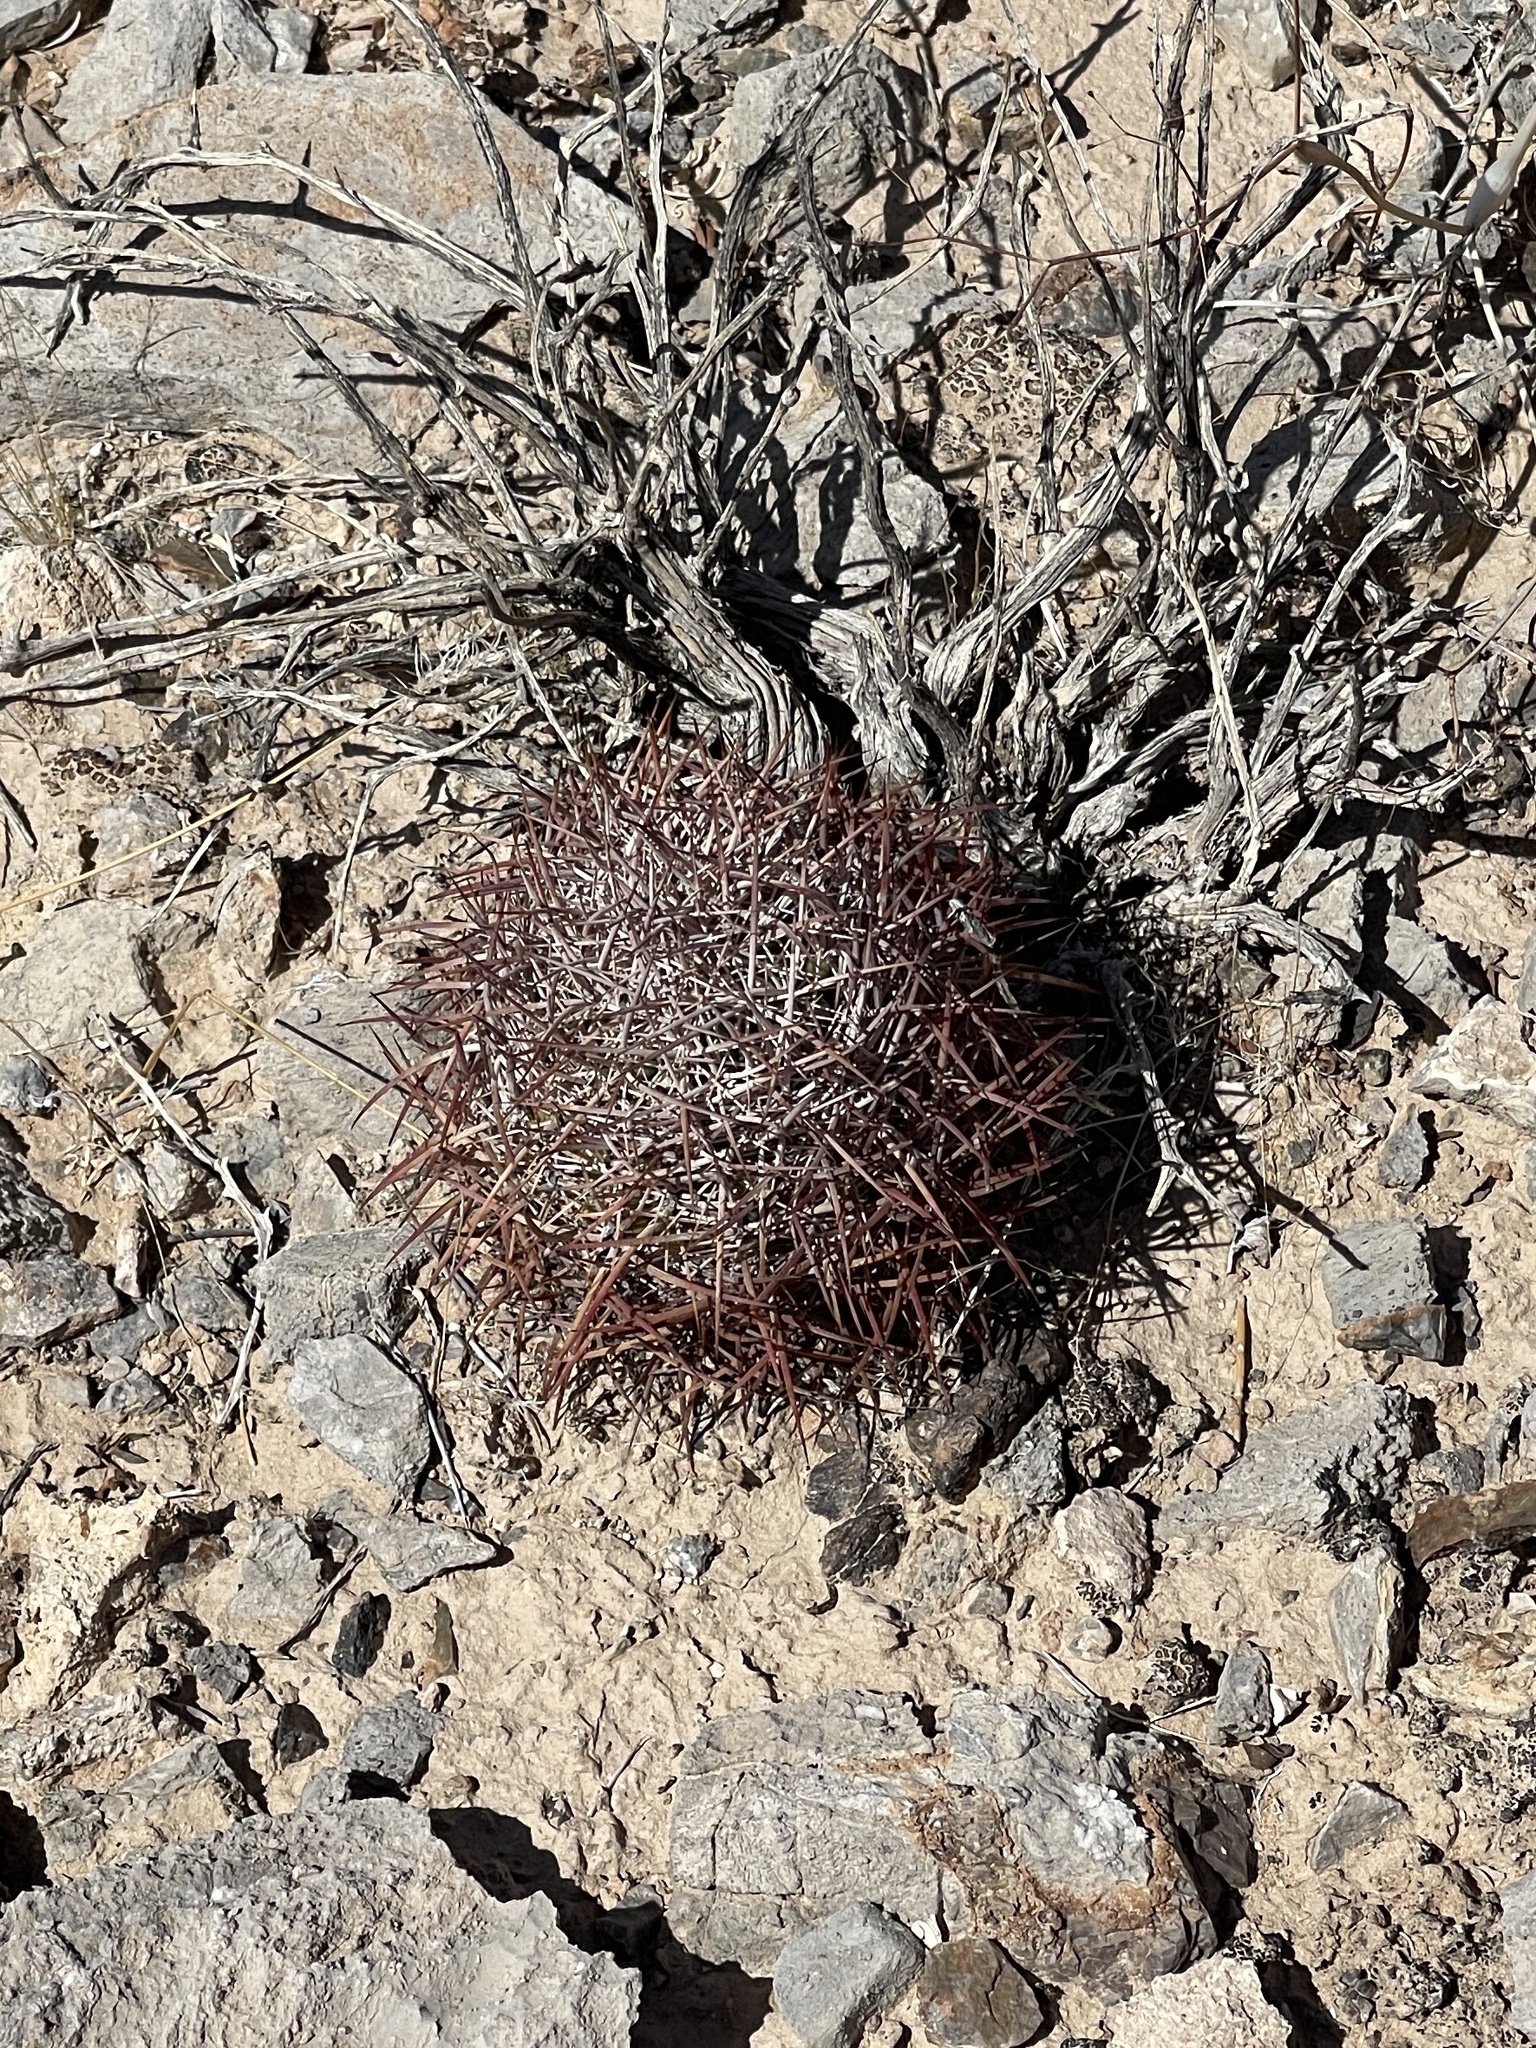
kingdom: Plantae
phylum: Tracheophyta
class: Magnoliopsida
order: Caryophyllales
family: Cactaceae
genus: Sclerocactus
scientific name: Sclerocactus johnsonii
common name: Eight-spine fishhook cactus
